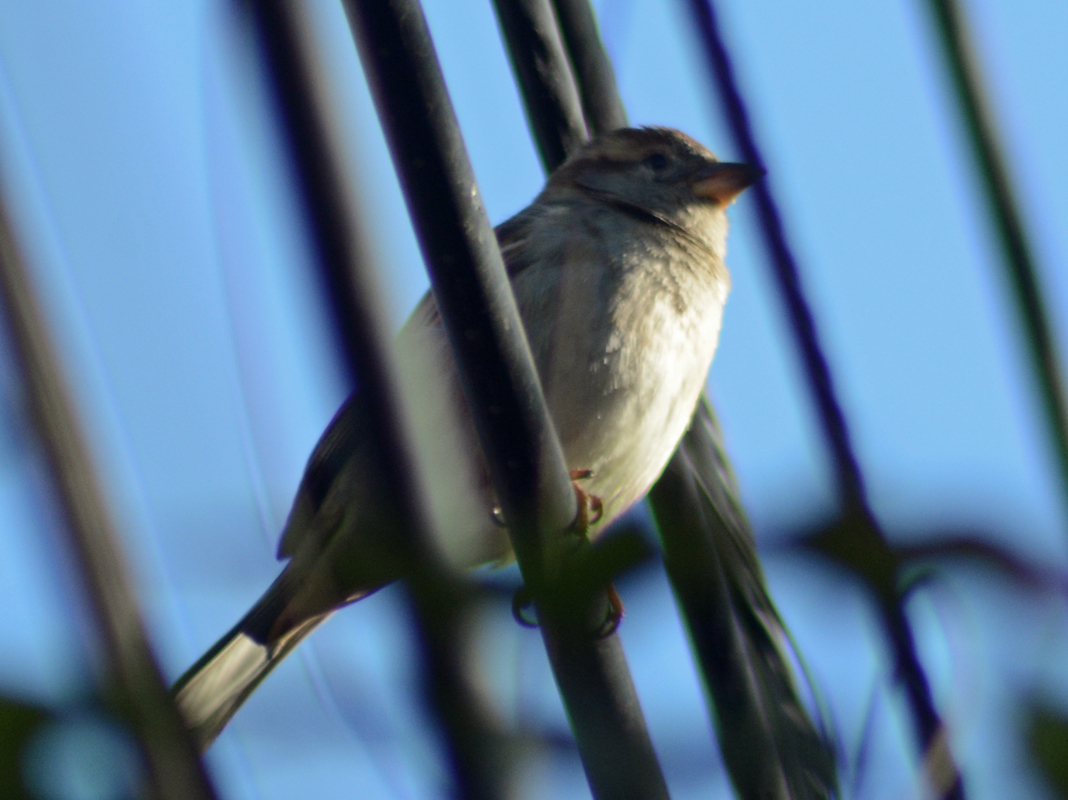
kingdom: Animalia
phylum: Chordata
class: Aves
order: Passeriformes
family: Passeridae
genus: Passer
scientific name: Passer domesticus
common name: House sparrow
